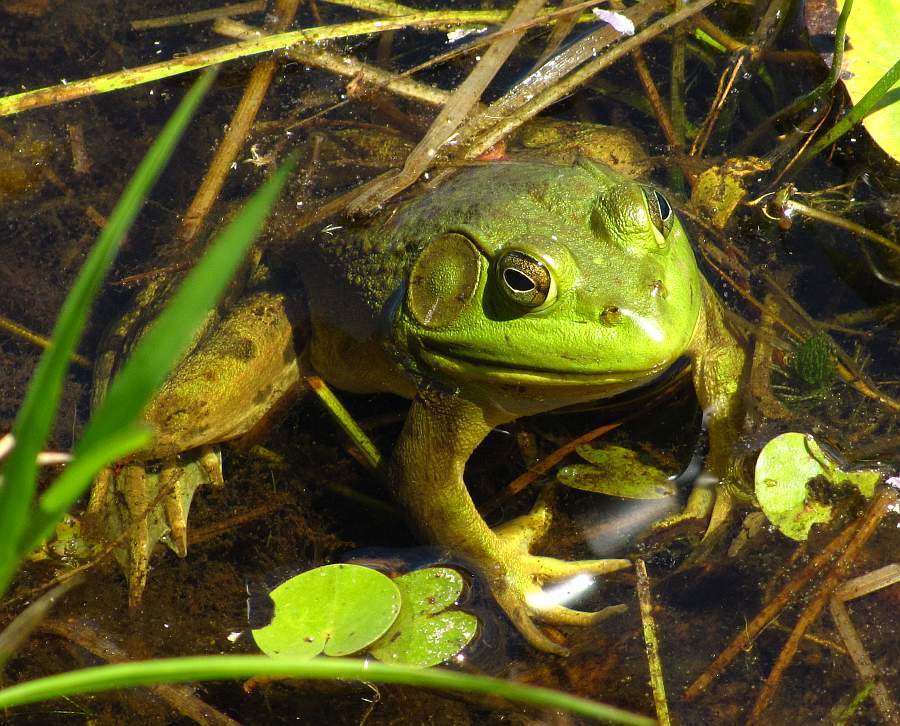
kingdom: Animalia
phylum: Chordata
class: Amphibia
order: Anura
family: Ranidae
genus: Lithobates
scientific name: Lithobates catesbeianus
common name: American bullfrog
